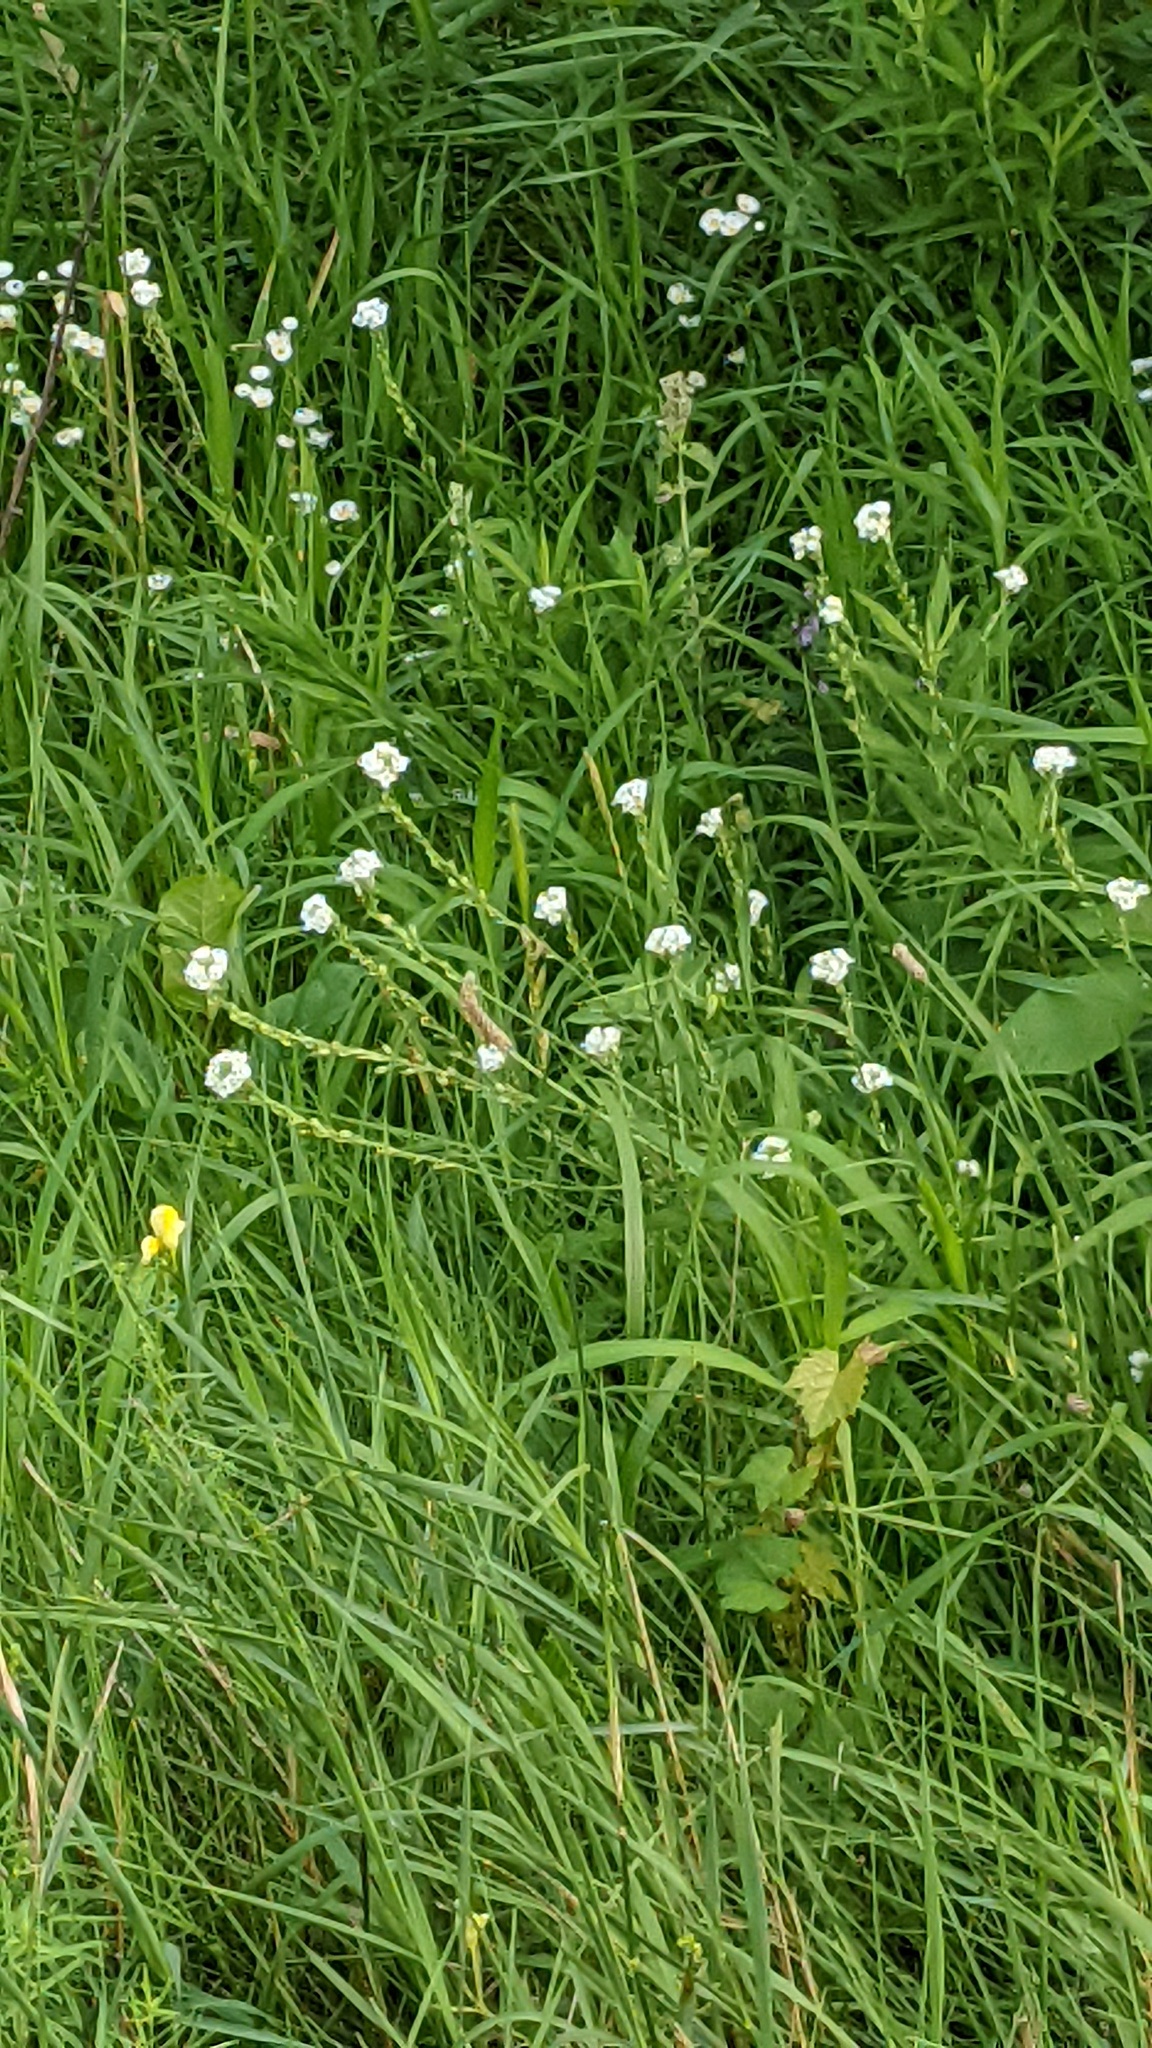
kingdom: Plantae
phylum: Tracheophyta
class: Magnoliopsida
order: Brassicales
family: Brassicaceae
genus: Berteroa
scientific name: Berteroa incana
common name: Hoary alison
